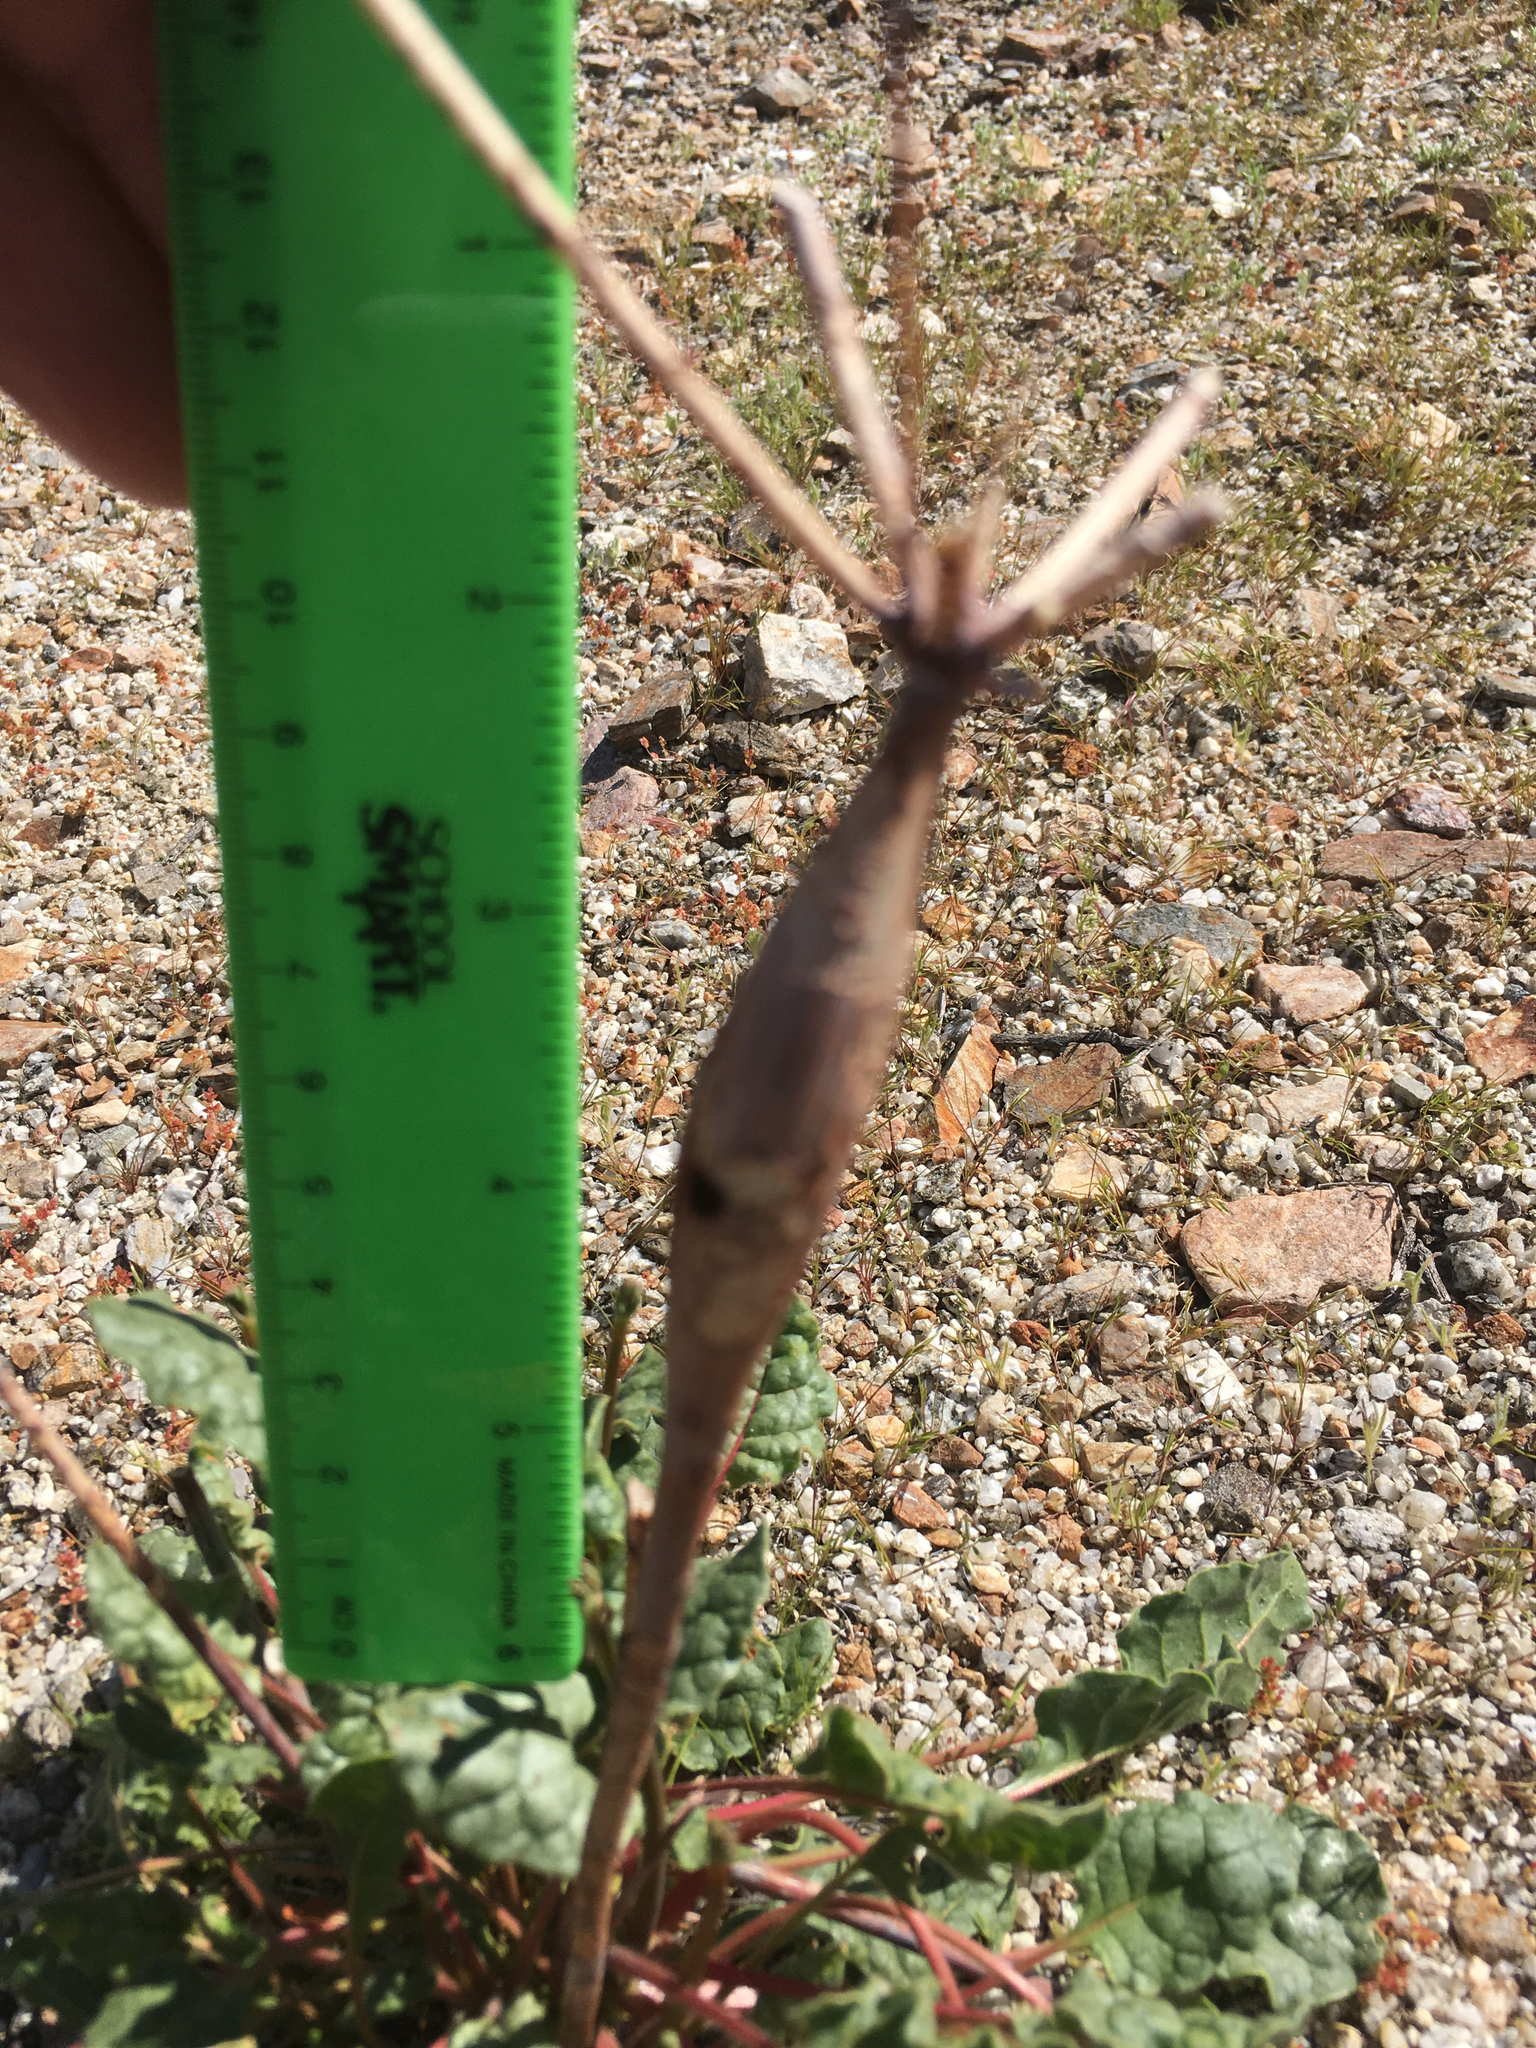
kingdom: Plantae
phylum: Tracheophyta
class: Magnoliopsida
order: Caryophyllales
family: Polygonaceae
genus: Eriogonum
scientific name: Eriogonum inflatum
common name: Desert trumpet
